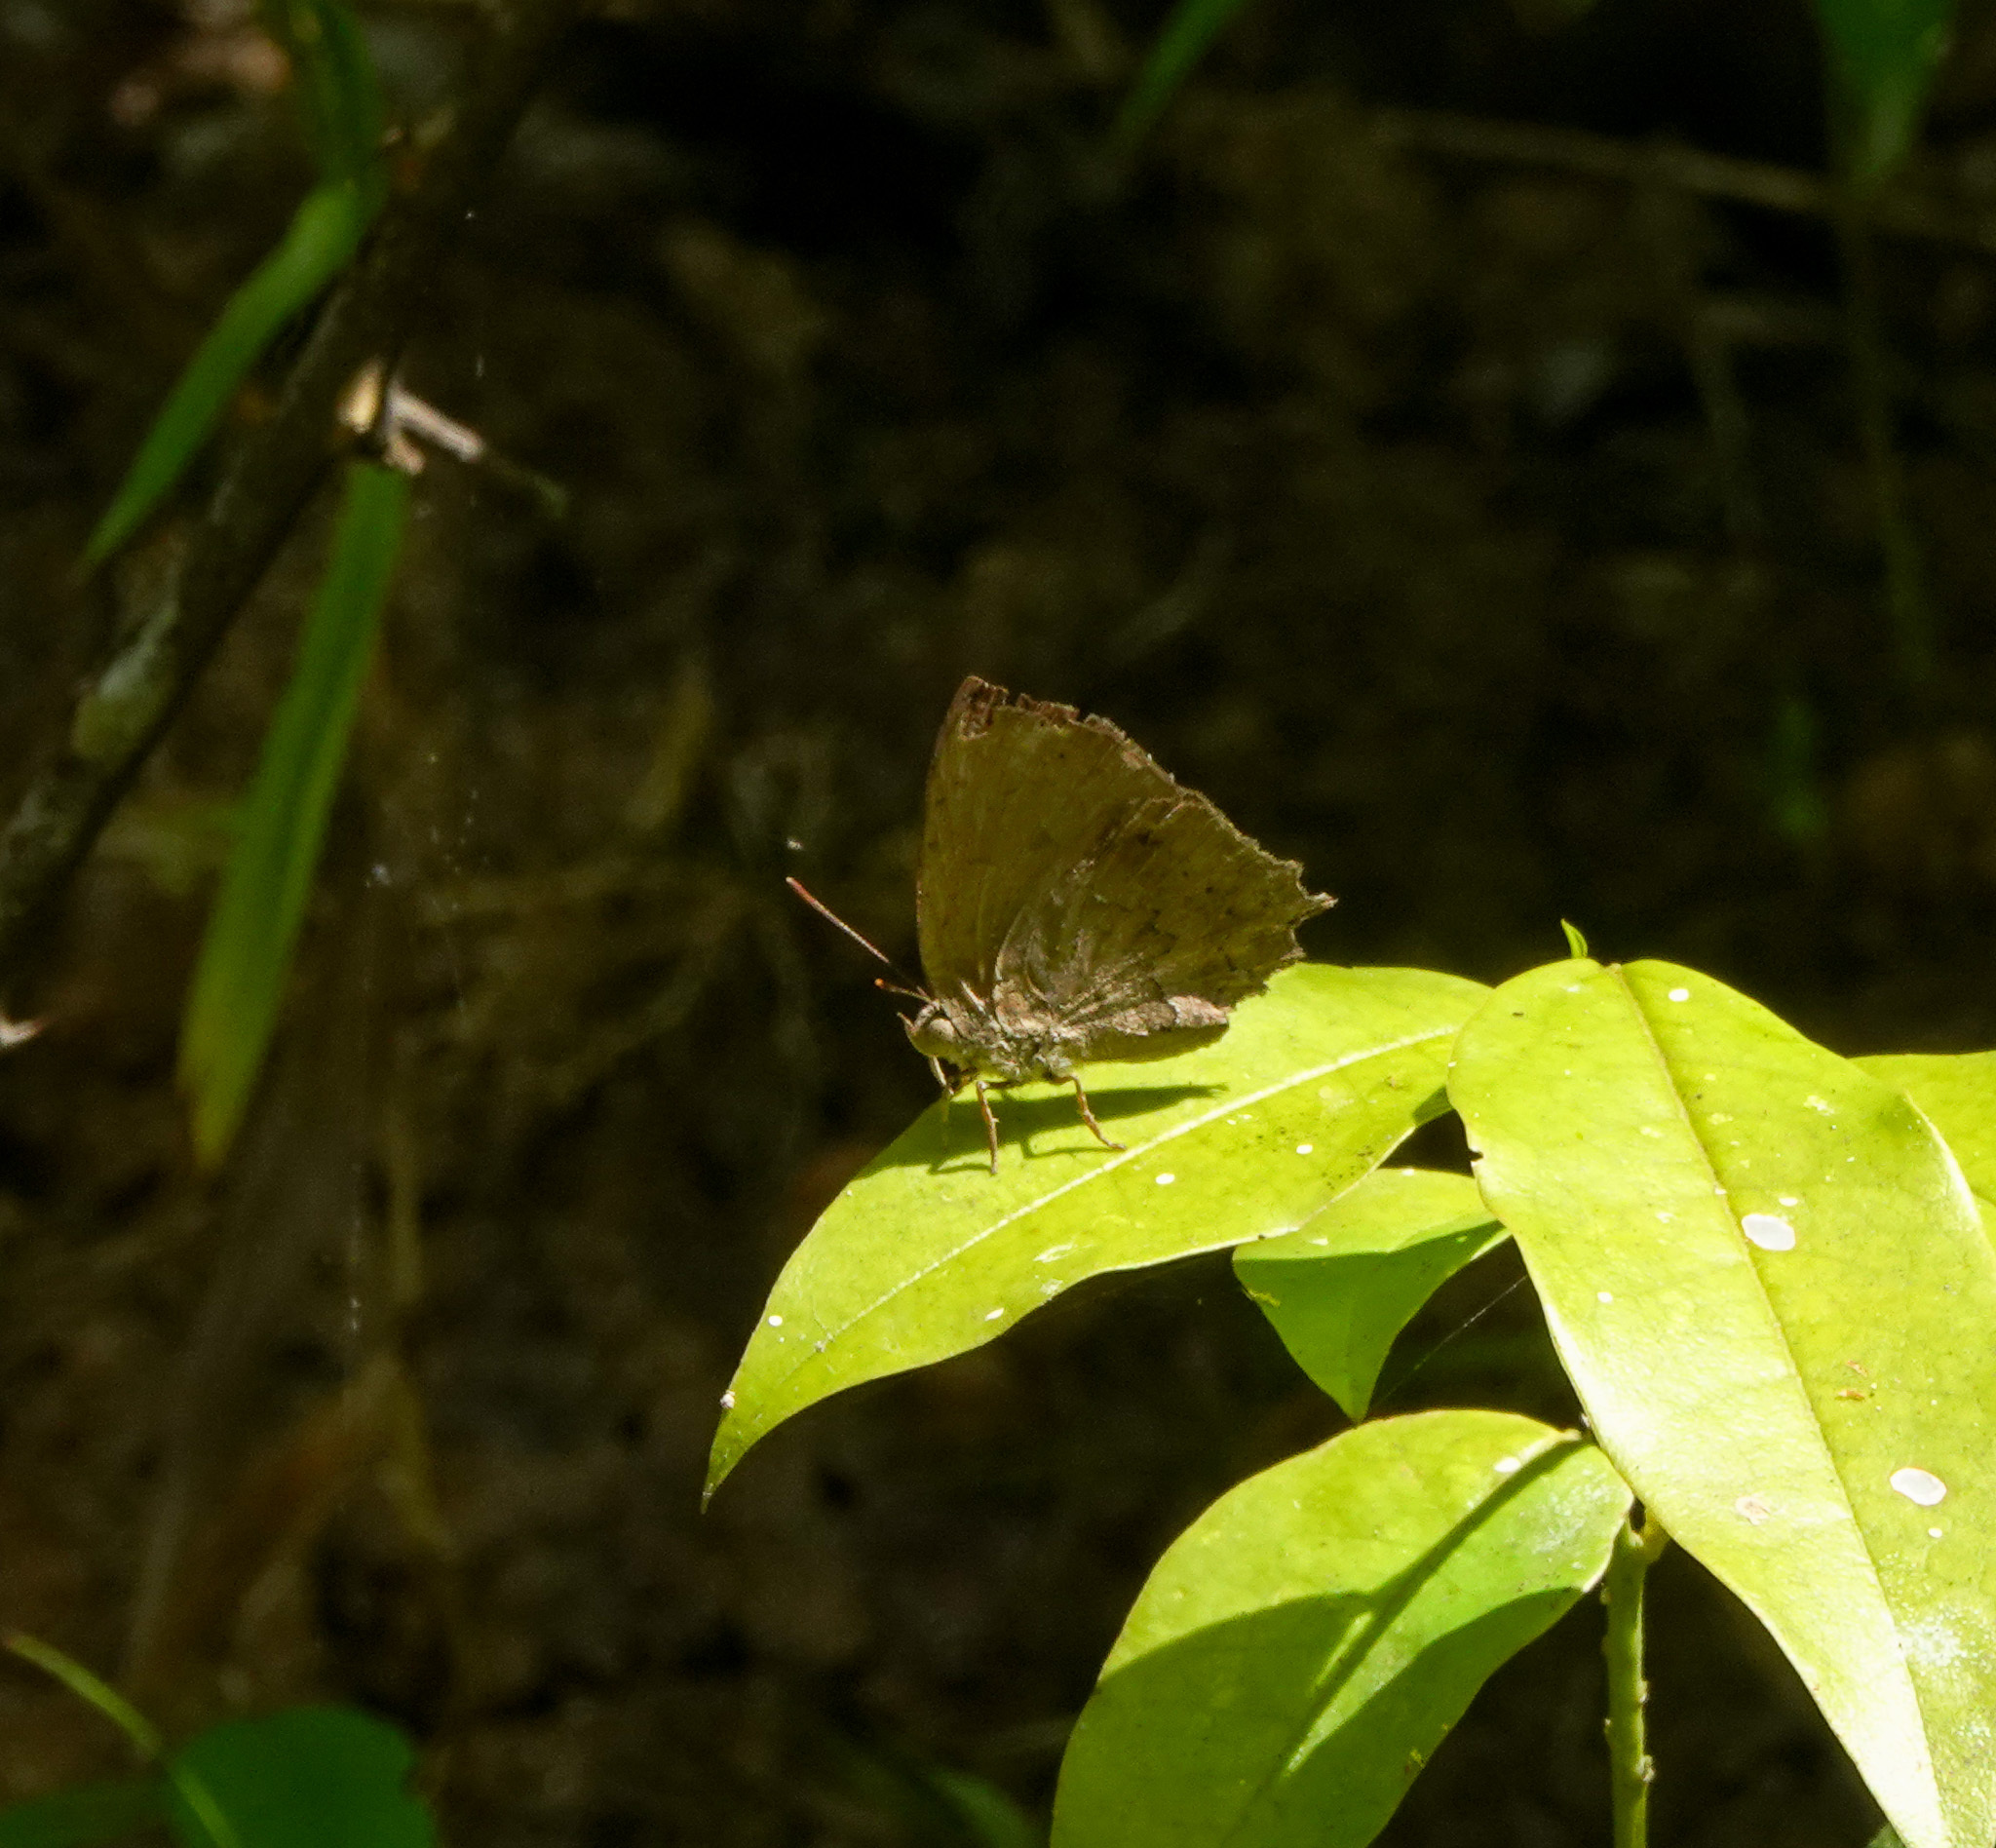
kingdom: Animalia
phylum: Arthropoda
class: Insecta
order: Lepidoptera
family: Lycaenidae
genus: Surendra
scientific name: Surendra quercetorum
